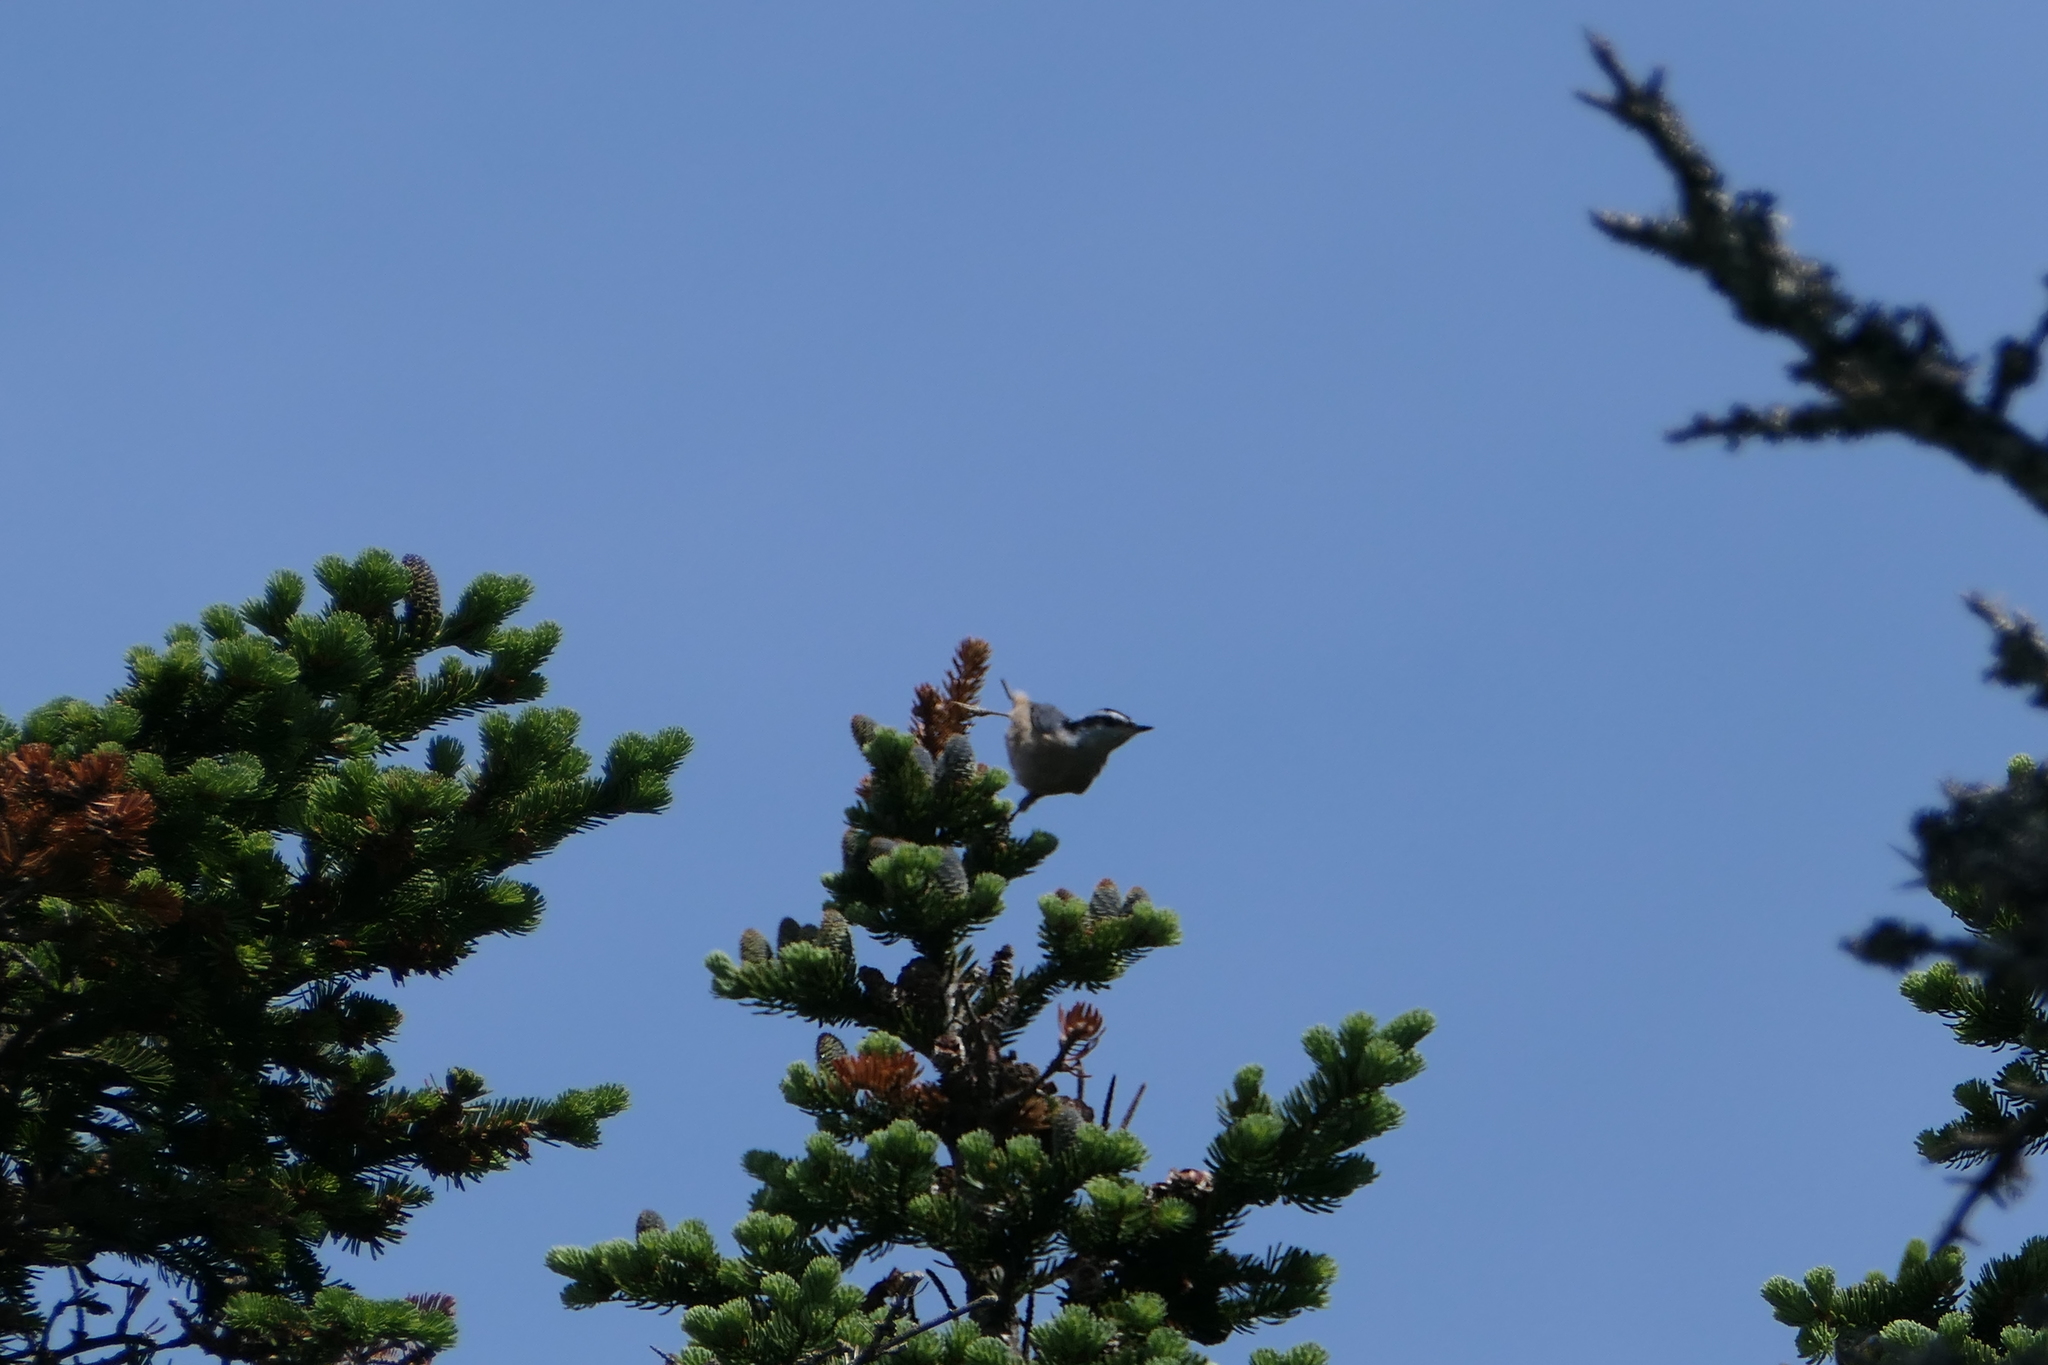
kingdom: Animalia
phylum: Chordata
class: Aves
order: Passeriformes
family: Sittidae
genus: Sitta
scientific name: Sitta canadensis
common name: Red-breasted nuthatch
